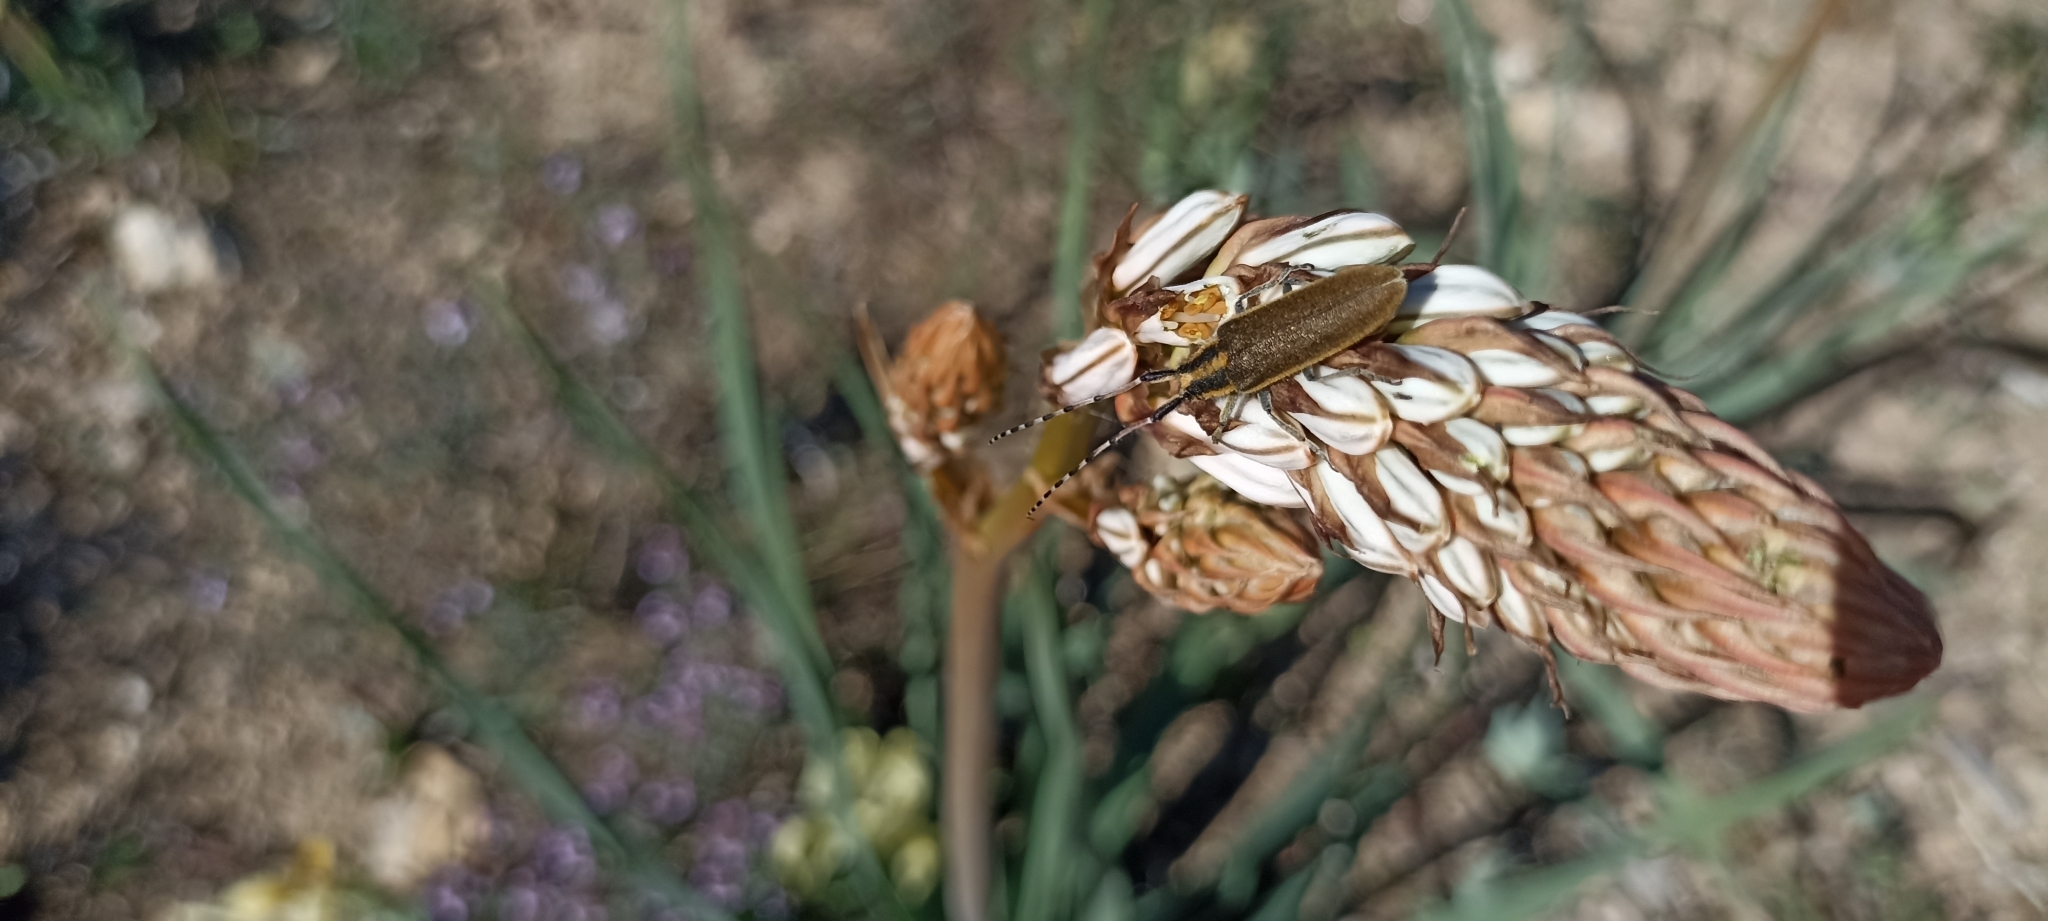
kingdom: Animalia
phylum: Arthropoda
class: Insecta
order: Coleoptera
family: Cerambycidae
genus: Agapanthia
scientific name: Agapanthia asphodeli
